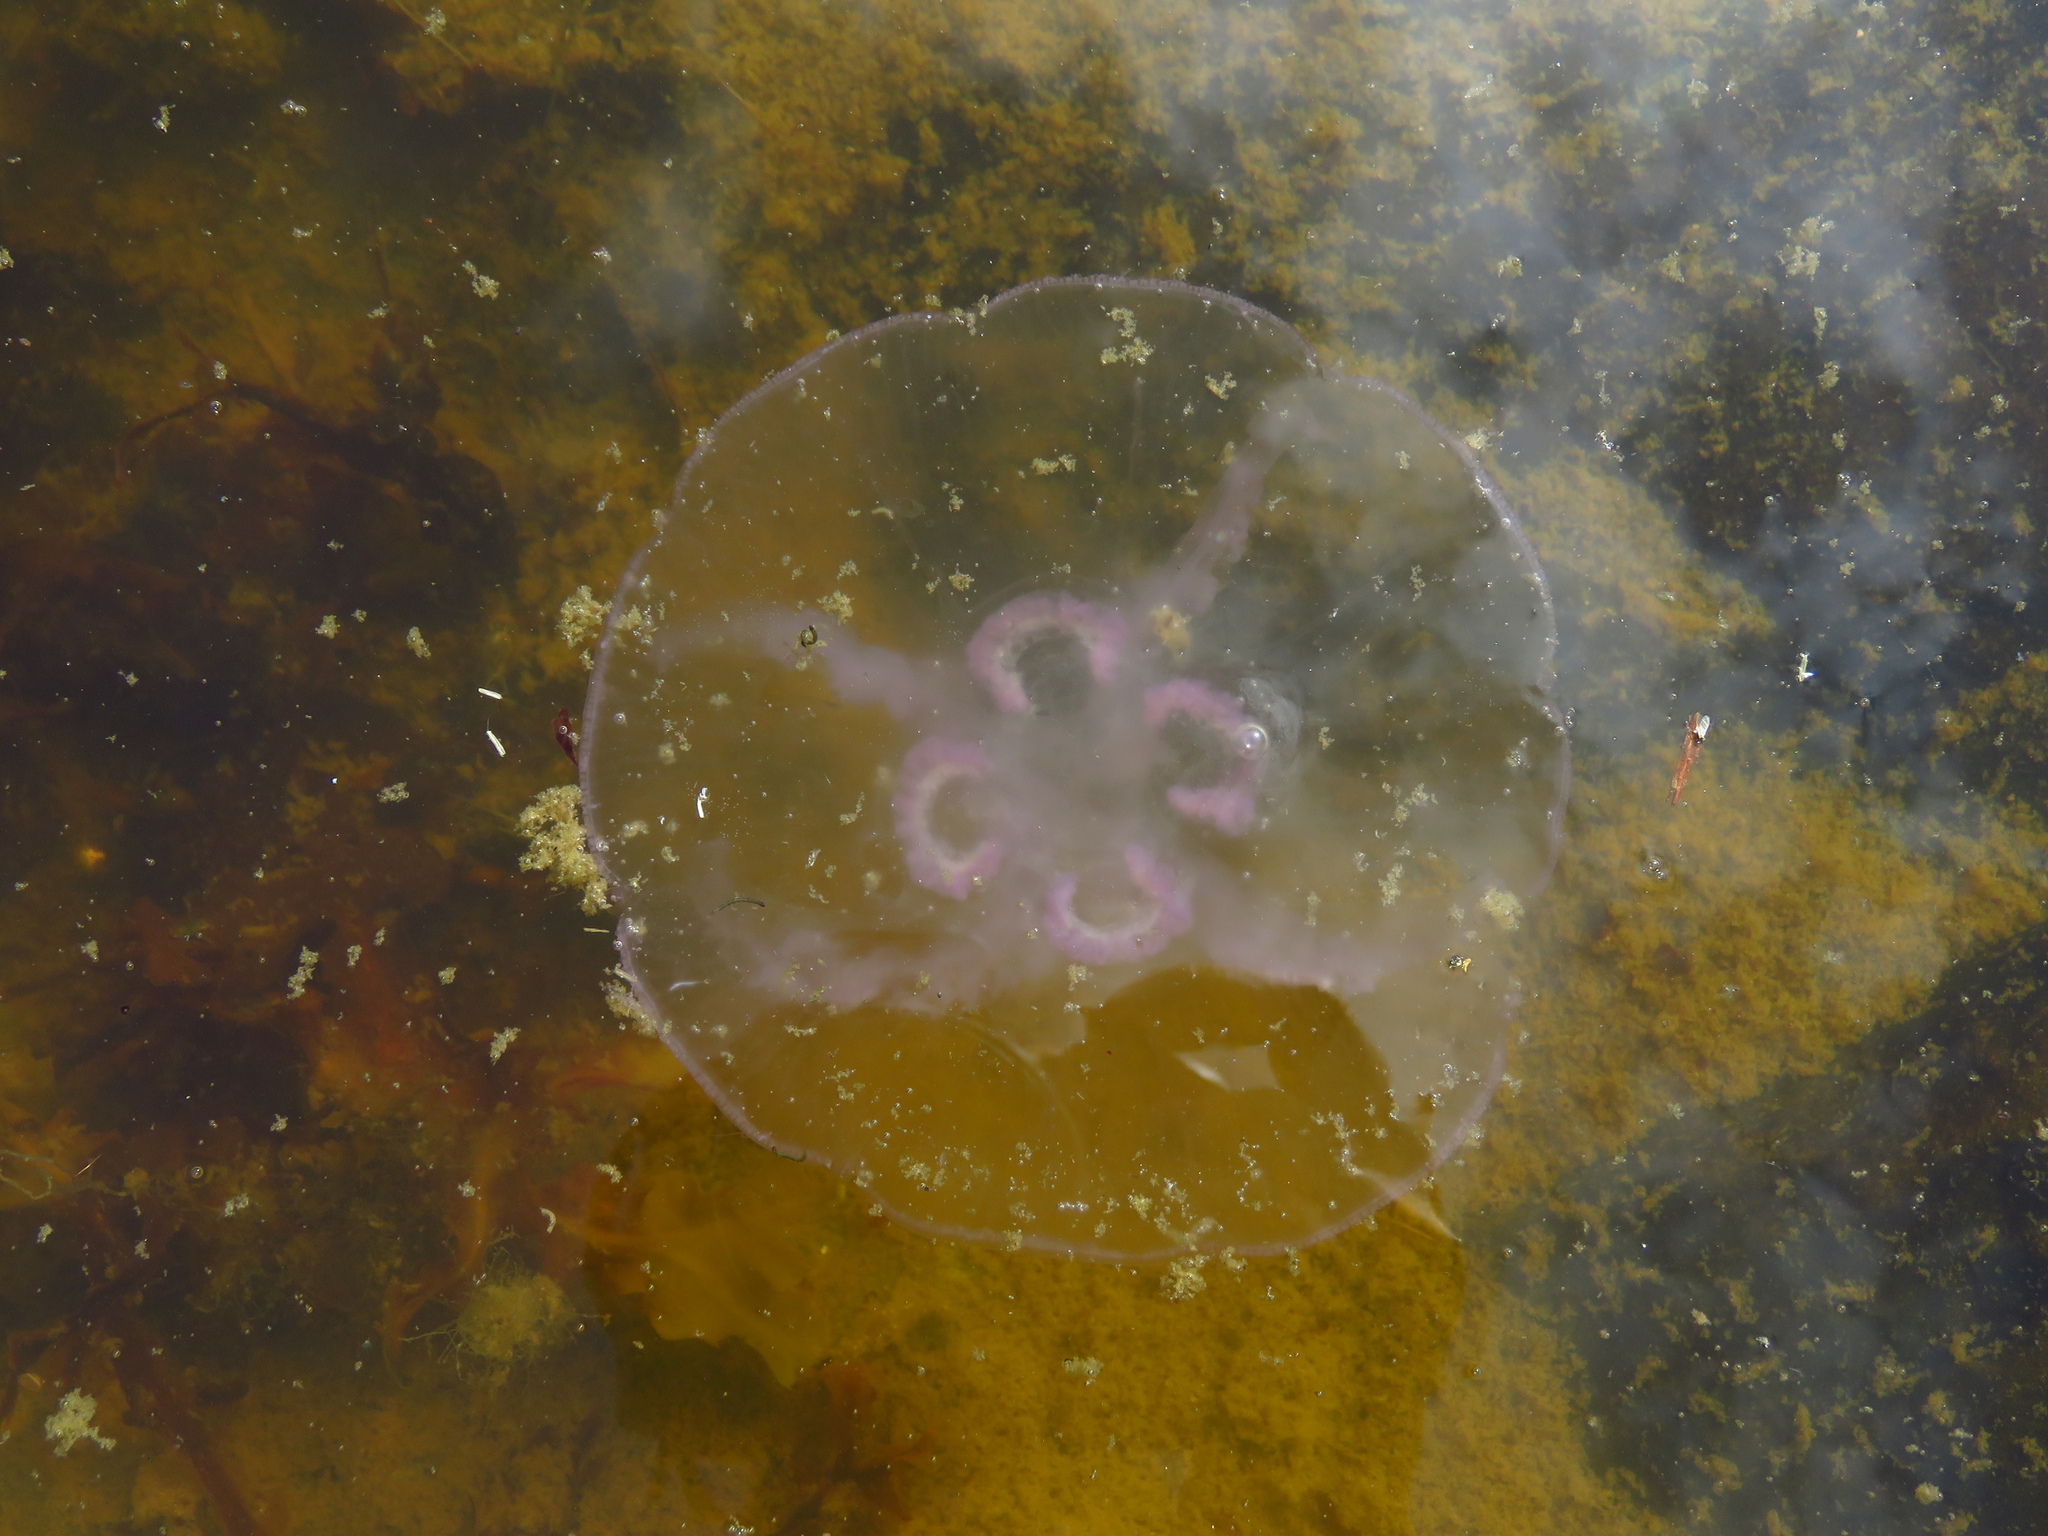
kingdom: Animalia
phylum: Cnidaria
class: Scyphozoa
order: Semaeostomeae
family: Ulmaridae
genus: Aurelia
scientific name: Aurelia aurita
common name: Moon jellyfish
